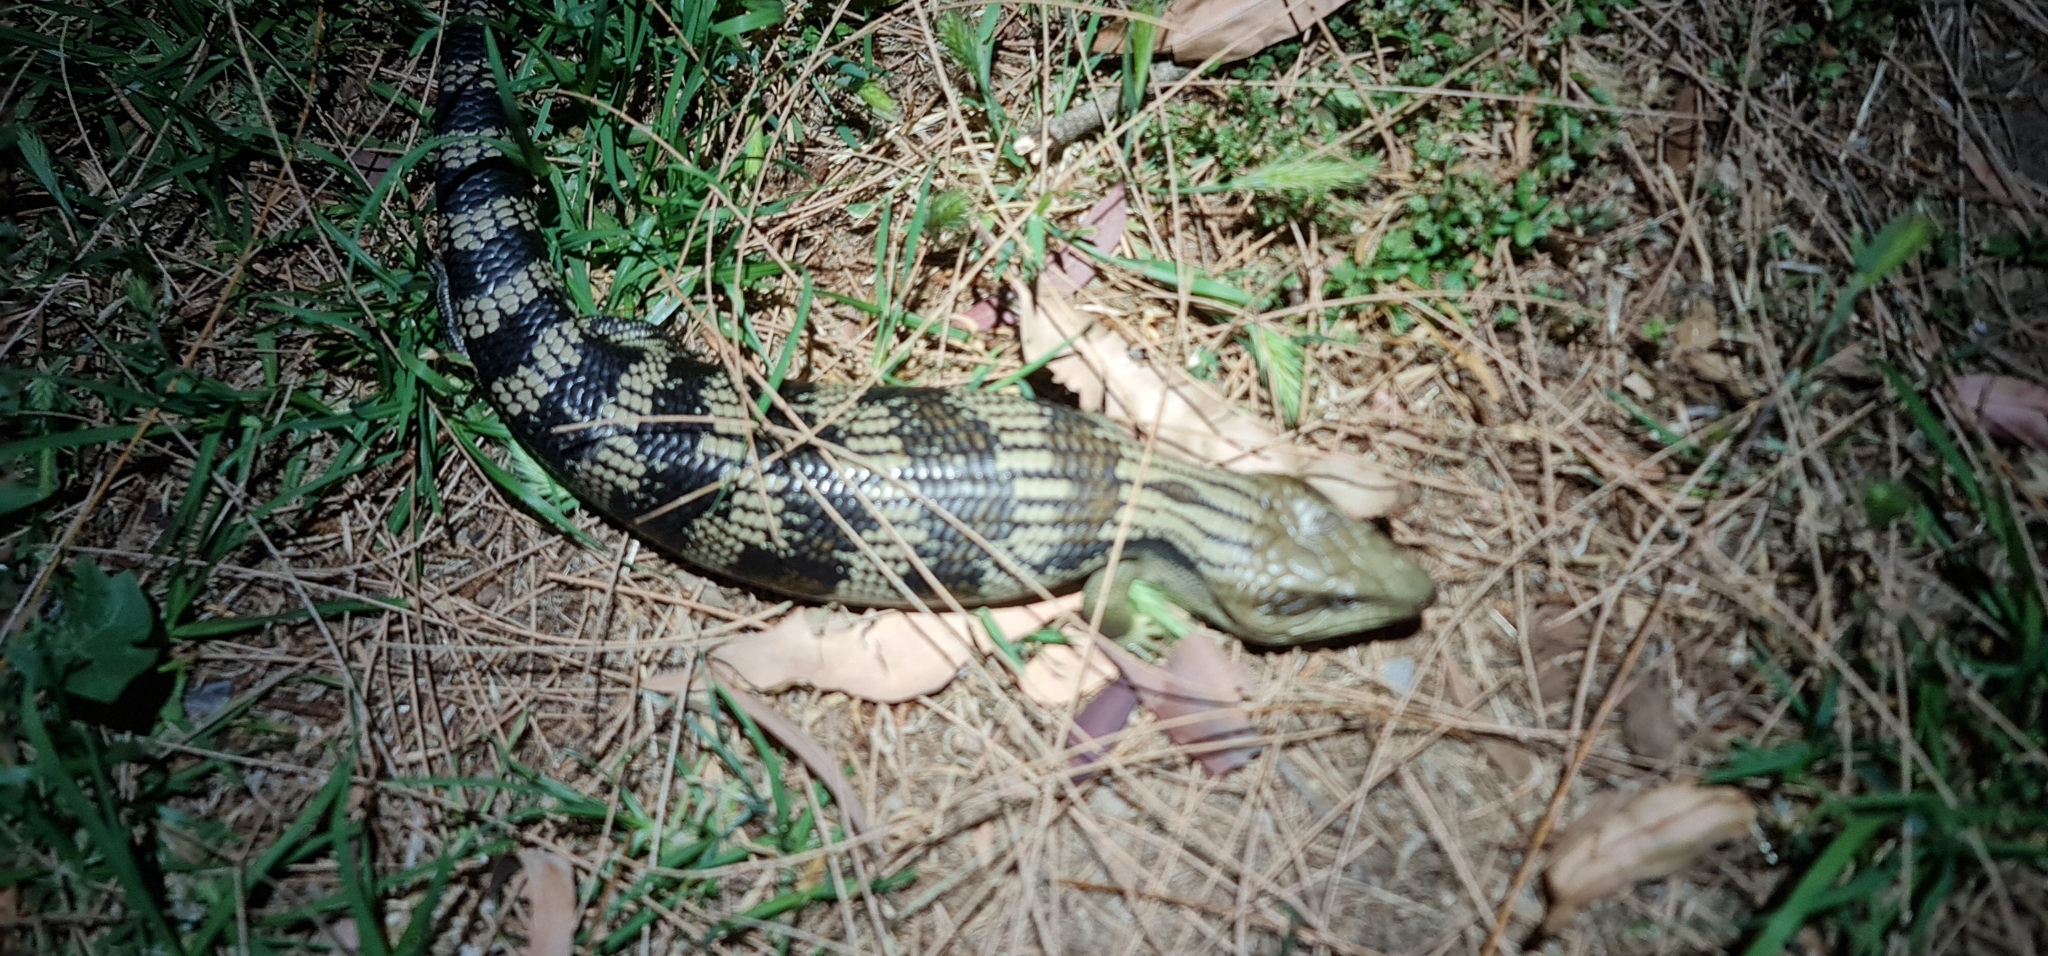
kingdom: Animalia
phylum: Chordata
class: Squamata
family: Scincidae
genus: Tiliqua
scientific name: Tiliqua scincoides
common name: Common bluetongue
